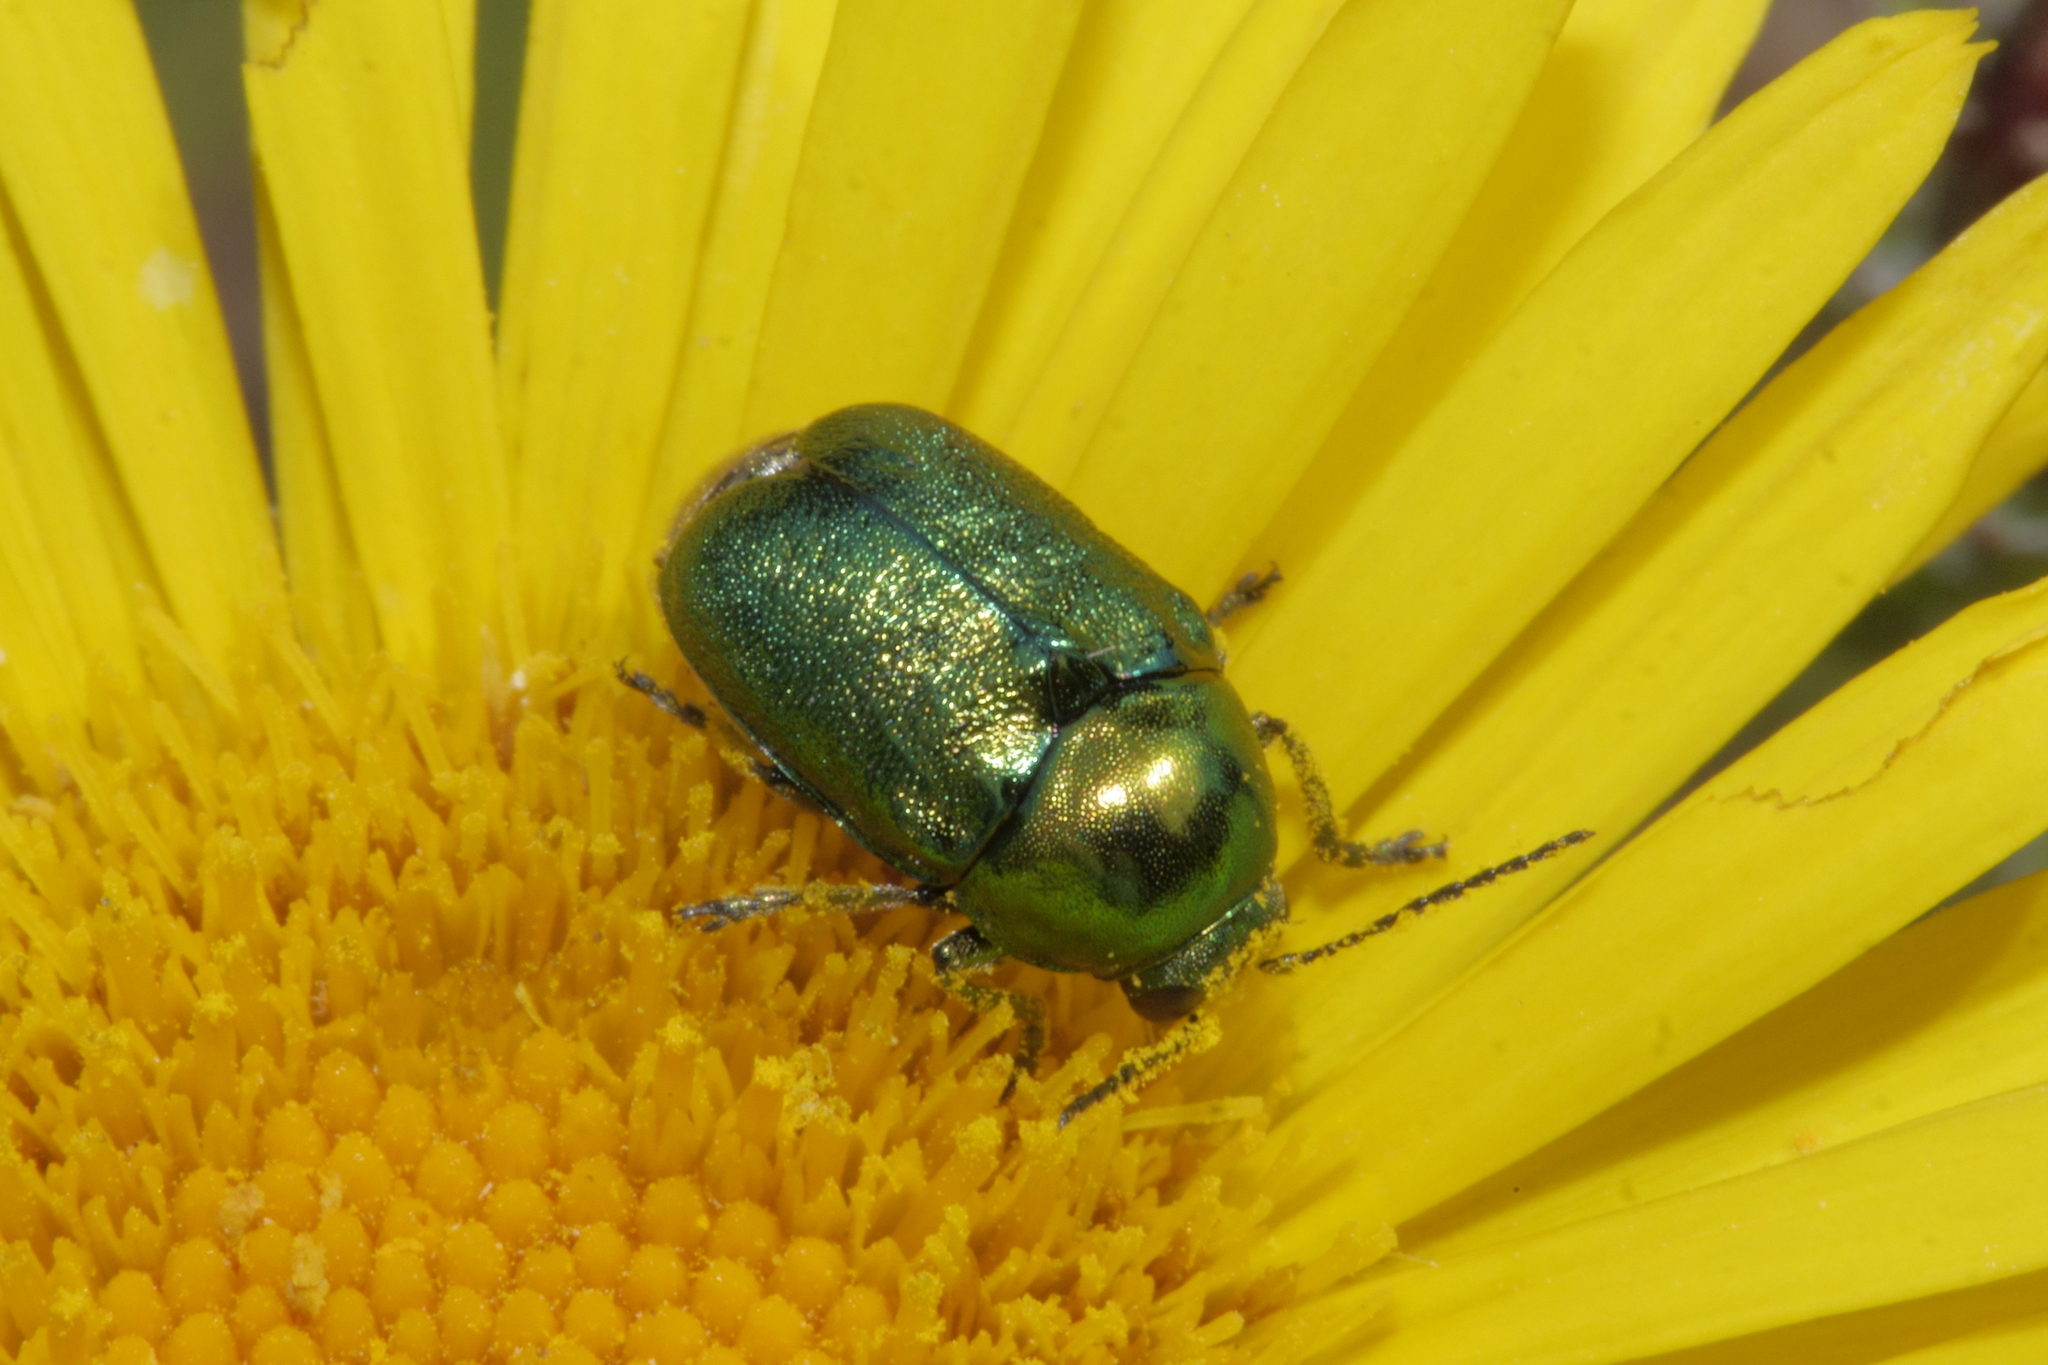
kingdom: Animalia
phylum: Arthropoda
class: Insecta
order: Coleoptera
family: Chrysomelidae
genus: Cryptocephalus
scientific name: Cryptocephalus
